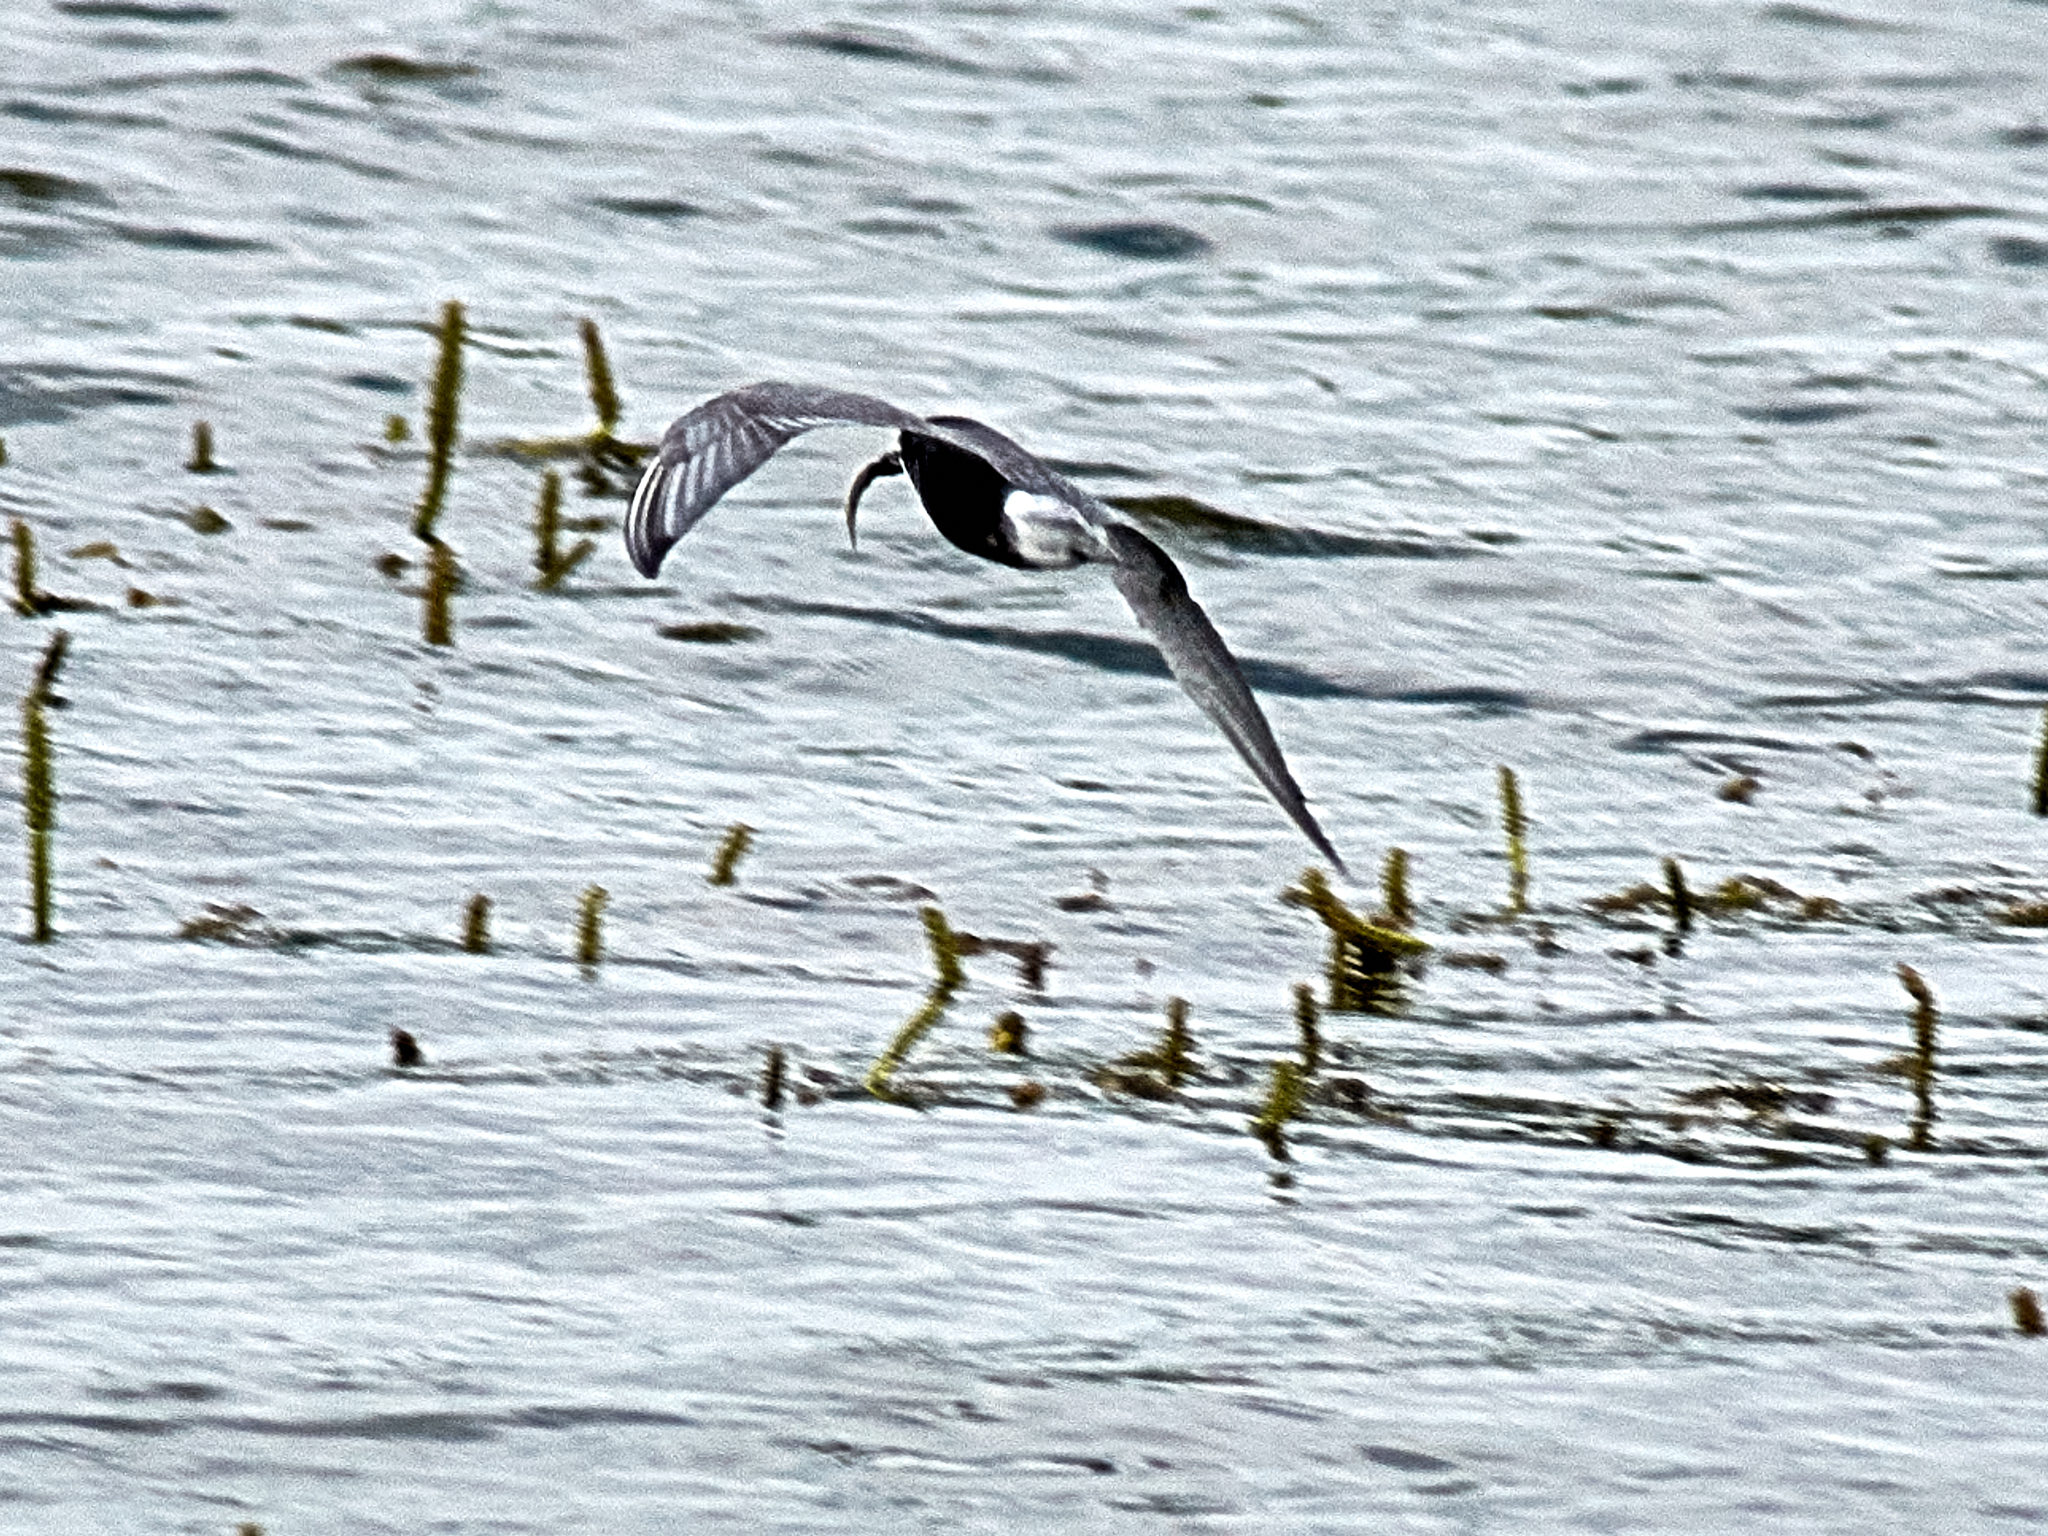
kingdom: Animalia
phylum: Chordata
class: Aves
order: Charadriiformes
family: Laridae
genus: Chlidonias
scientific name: Chlidonias niger
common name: Black tern
